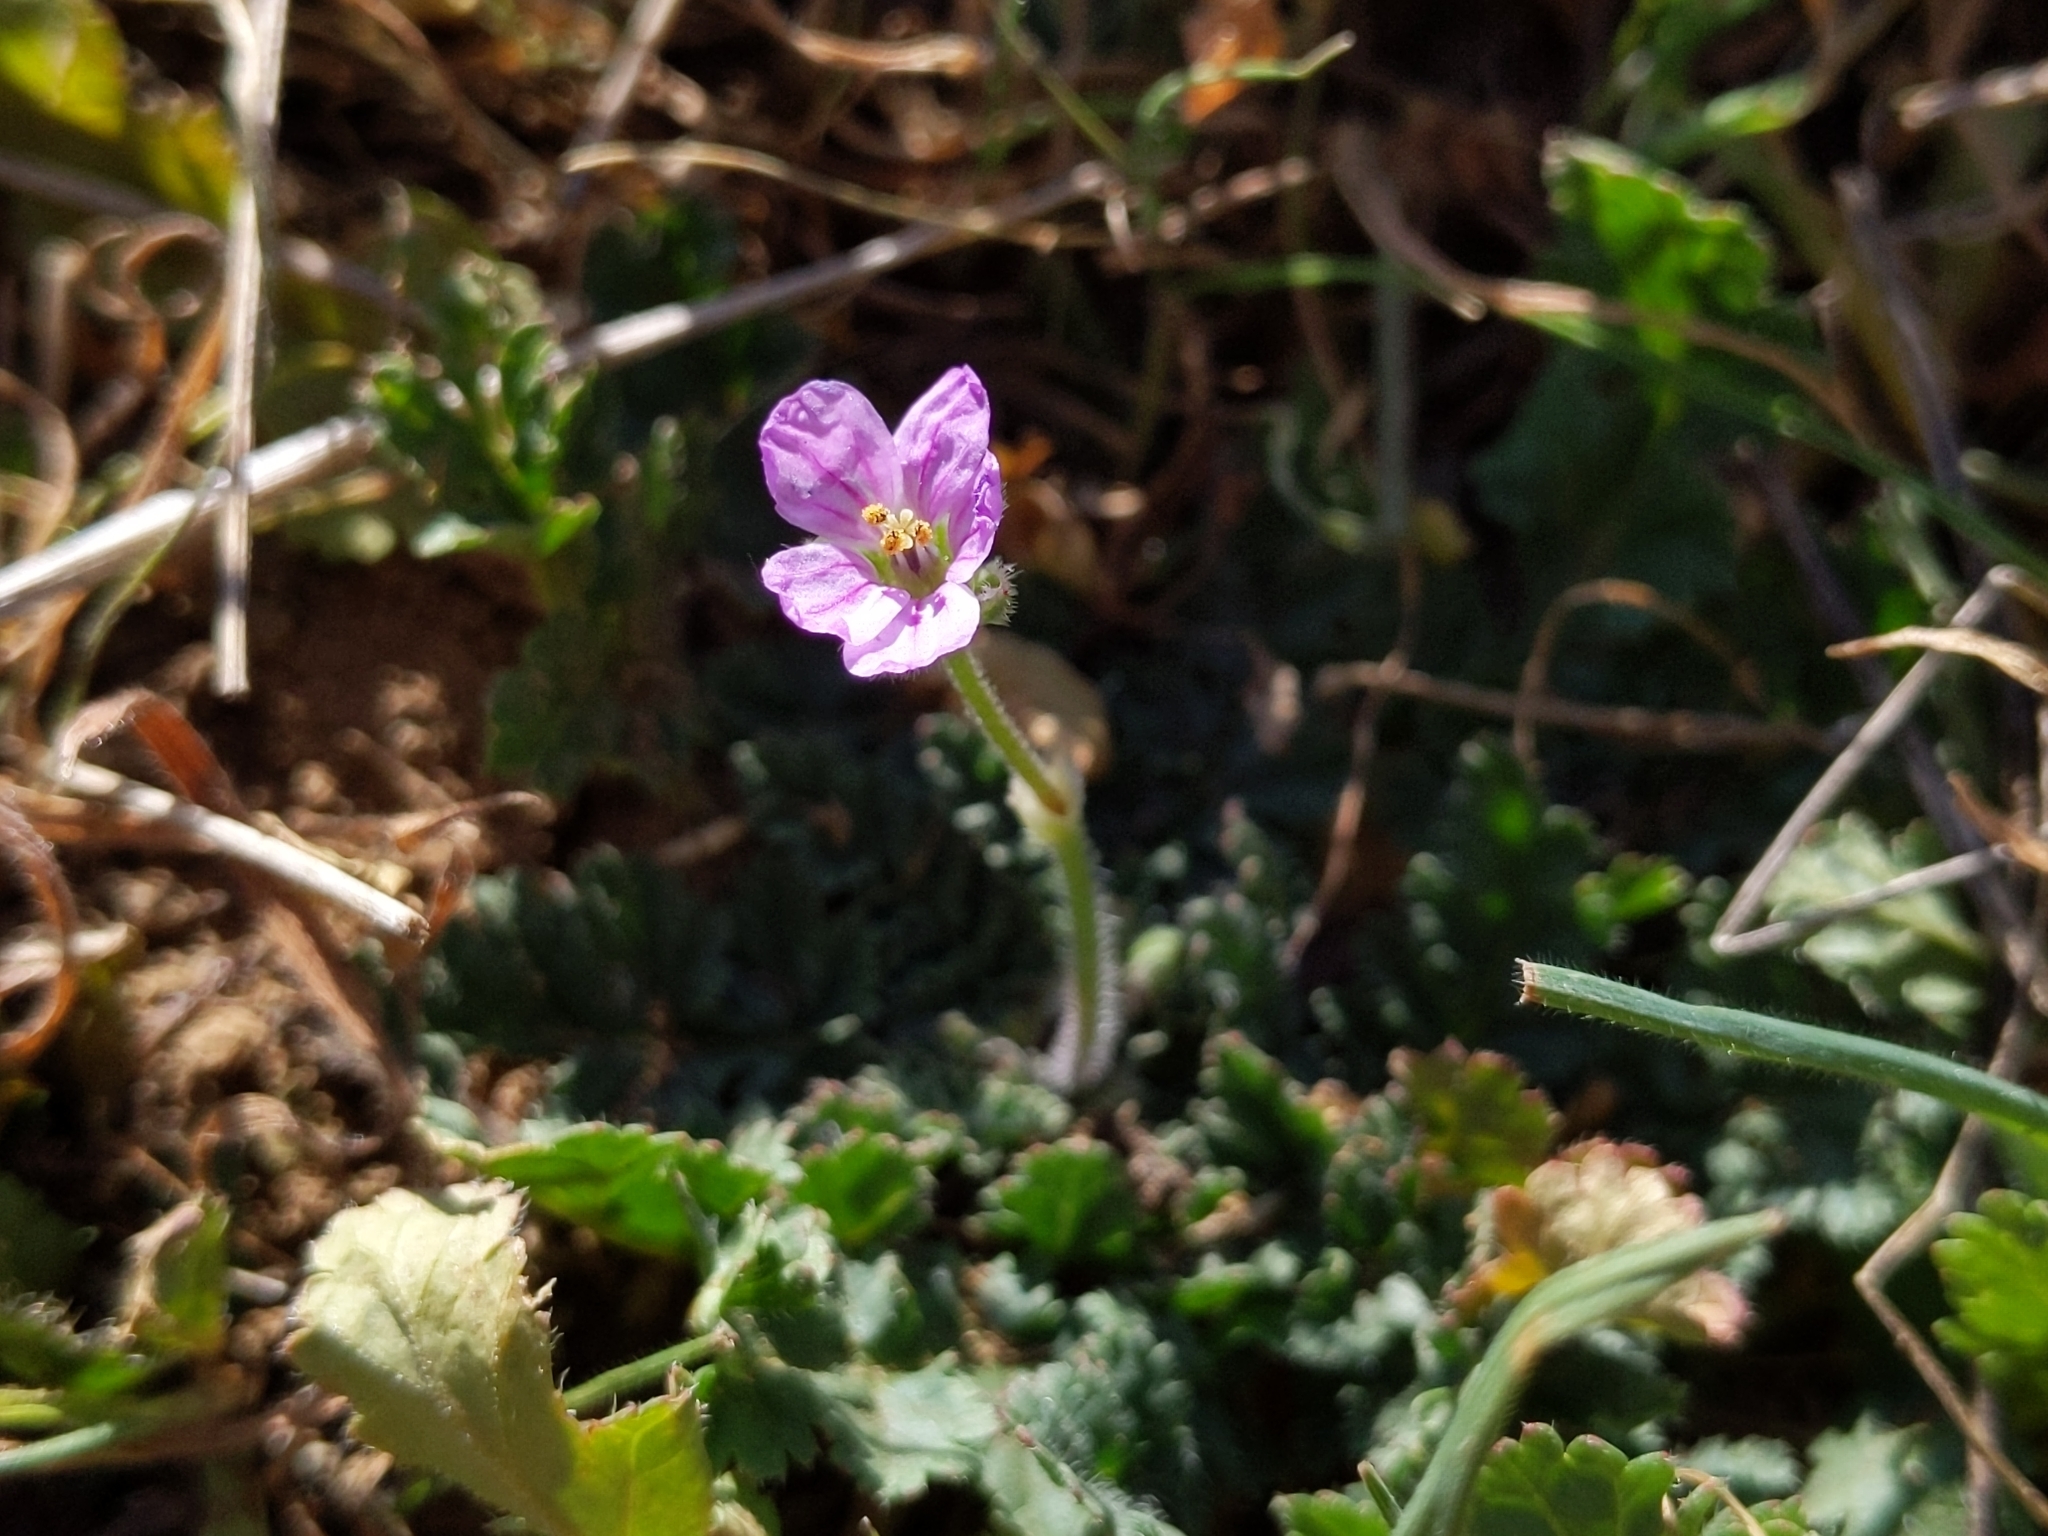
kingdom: Plantae
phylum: Tracheophyta
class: Magnoliopsida
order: Geraniales
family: Geraniaceae
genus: Erodium
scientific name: Erodium botrys
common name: Mediterranean stork's-bill
